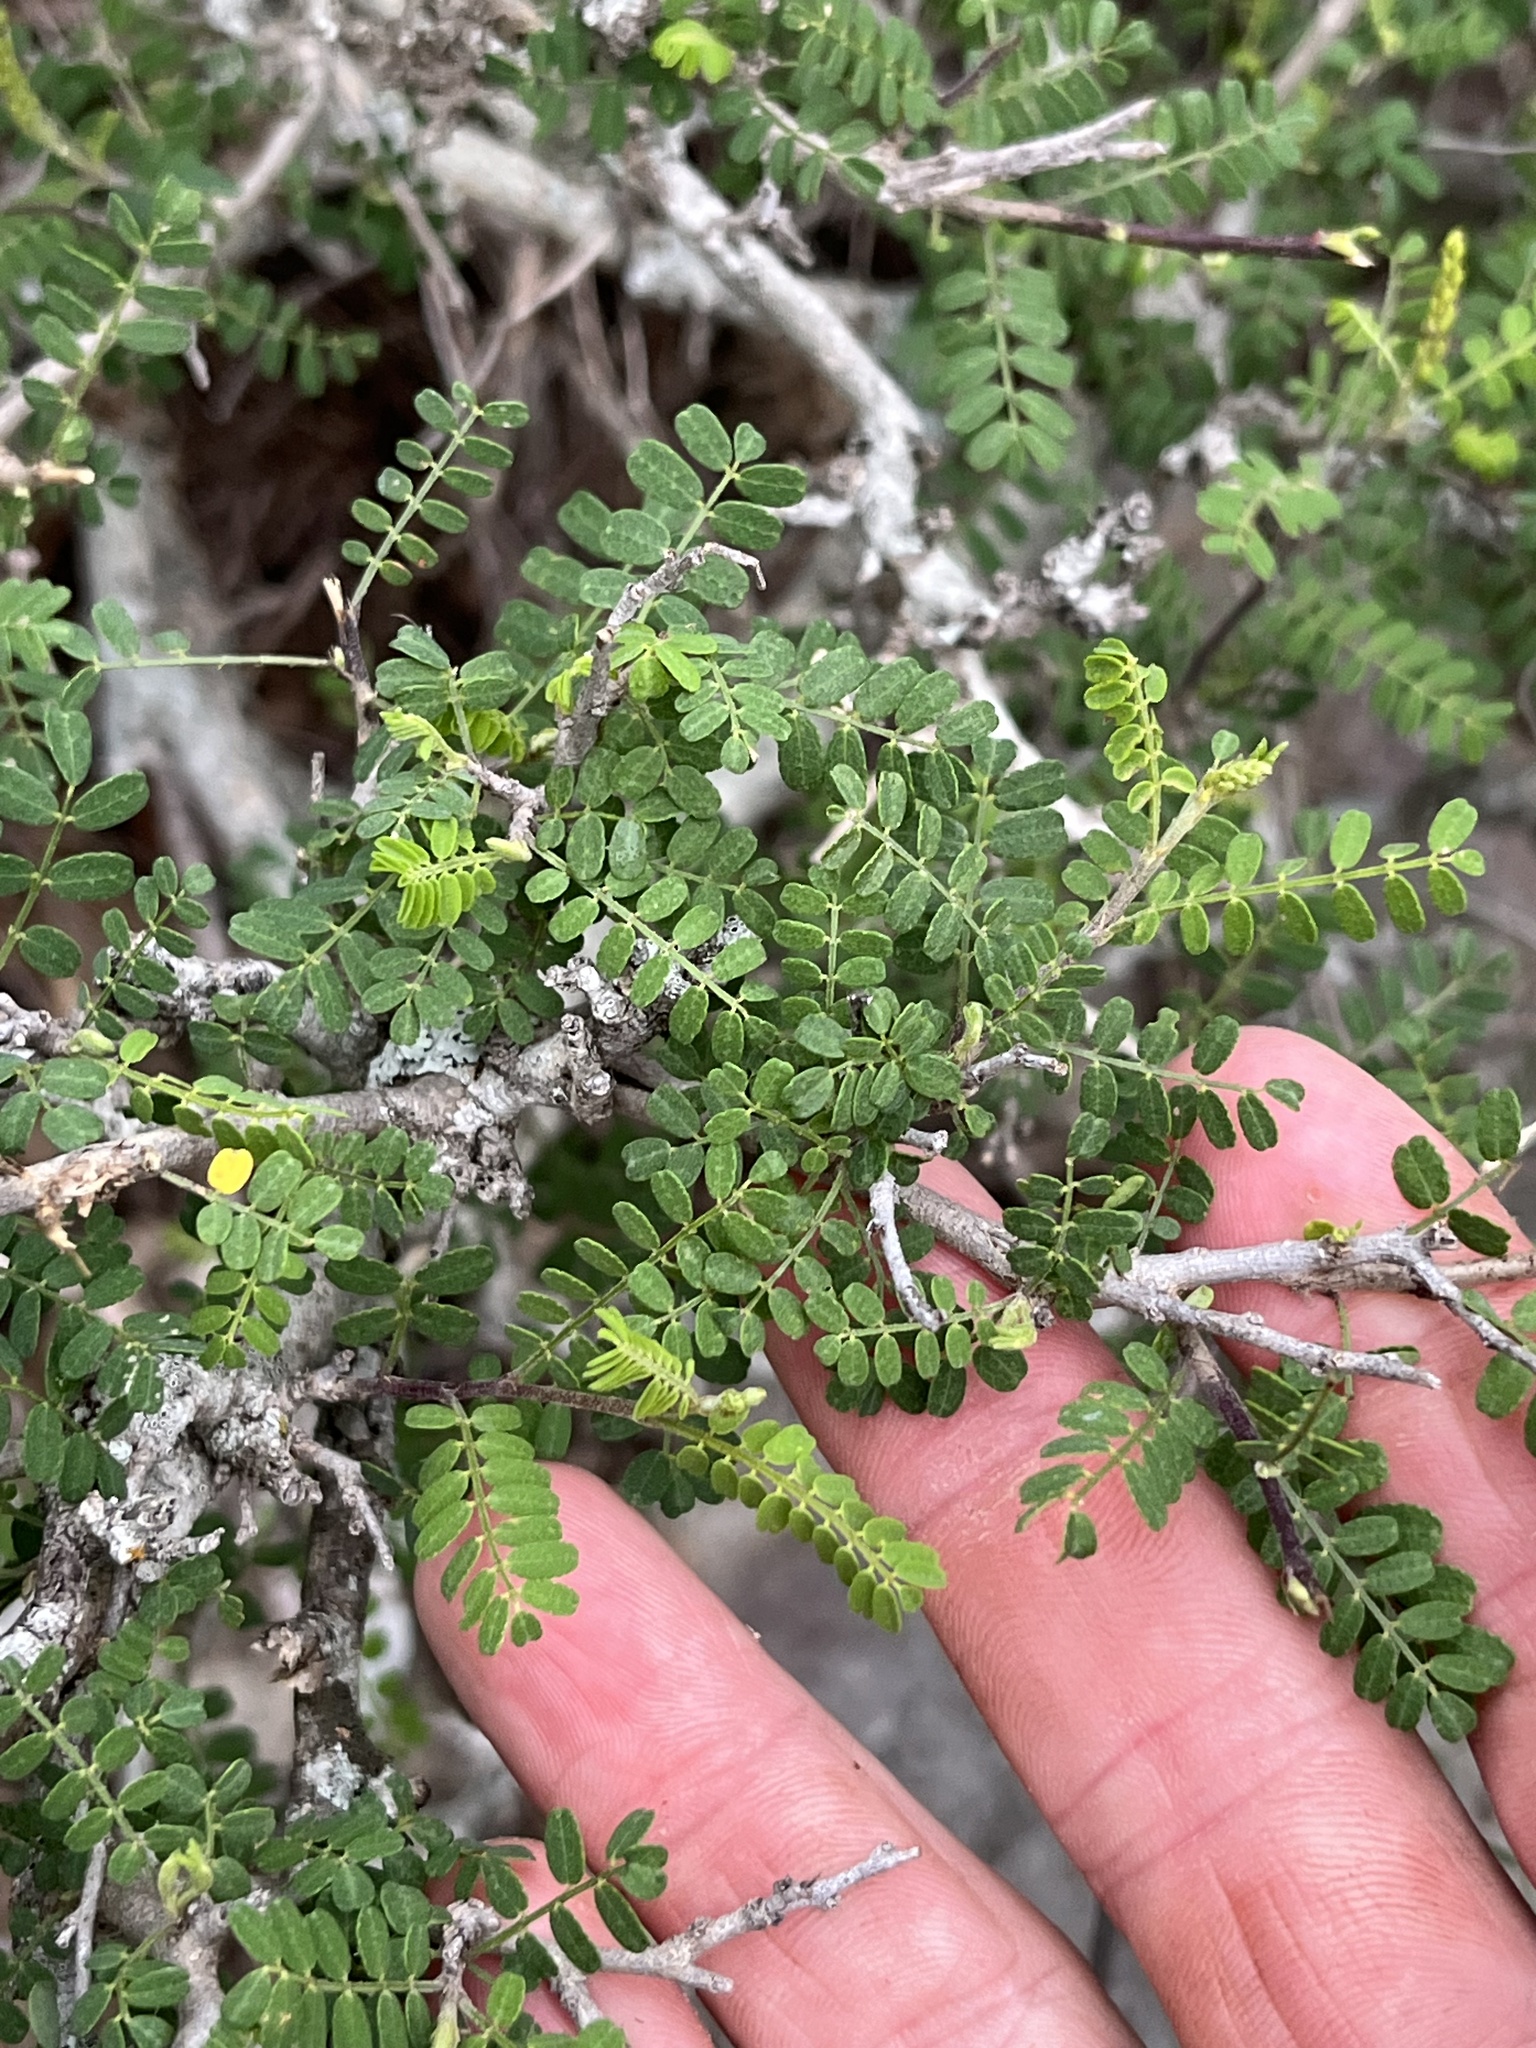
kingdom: Plantae
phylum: Tracheophyta
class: Magnoliopsida
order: Fabales
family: Fabaceae
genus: Eysenhardtia
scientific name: Eysenhardtia texana
